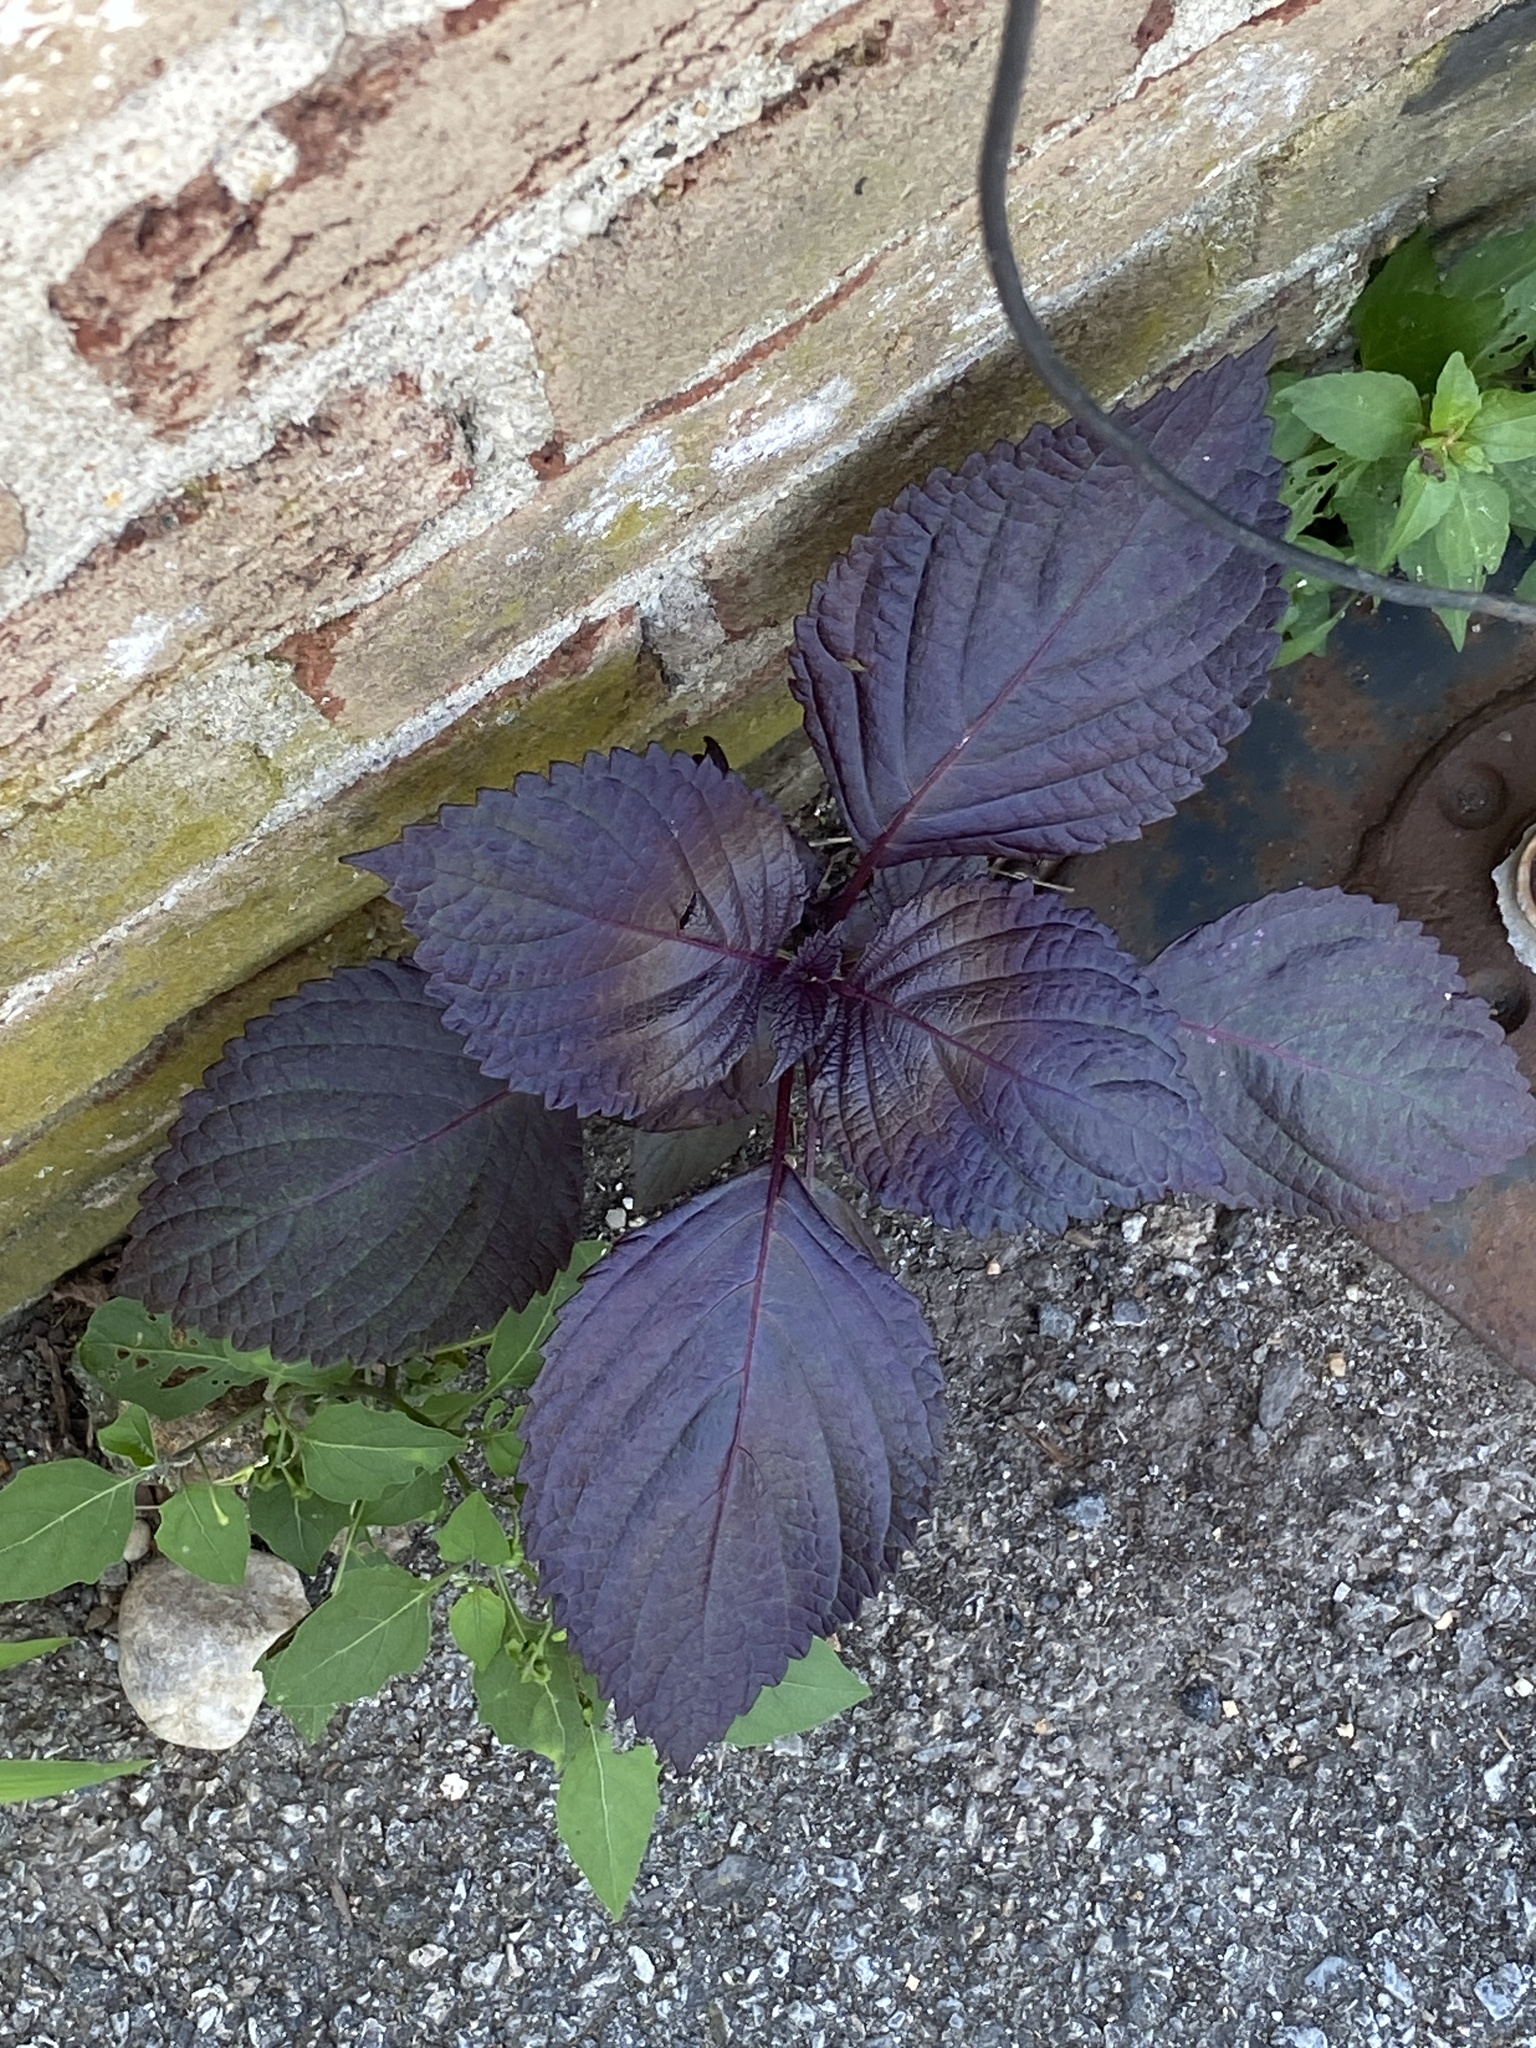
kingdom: Plantae
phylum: Tracheophyta
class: Magnoliopsida
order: Lamiales
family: Lamiaceae
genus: Perilla
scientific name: Perilla frutescens
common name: Perilla
